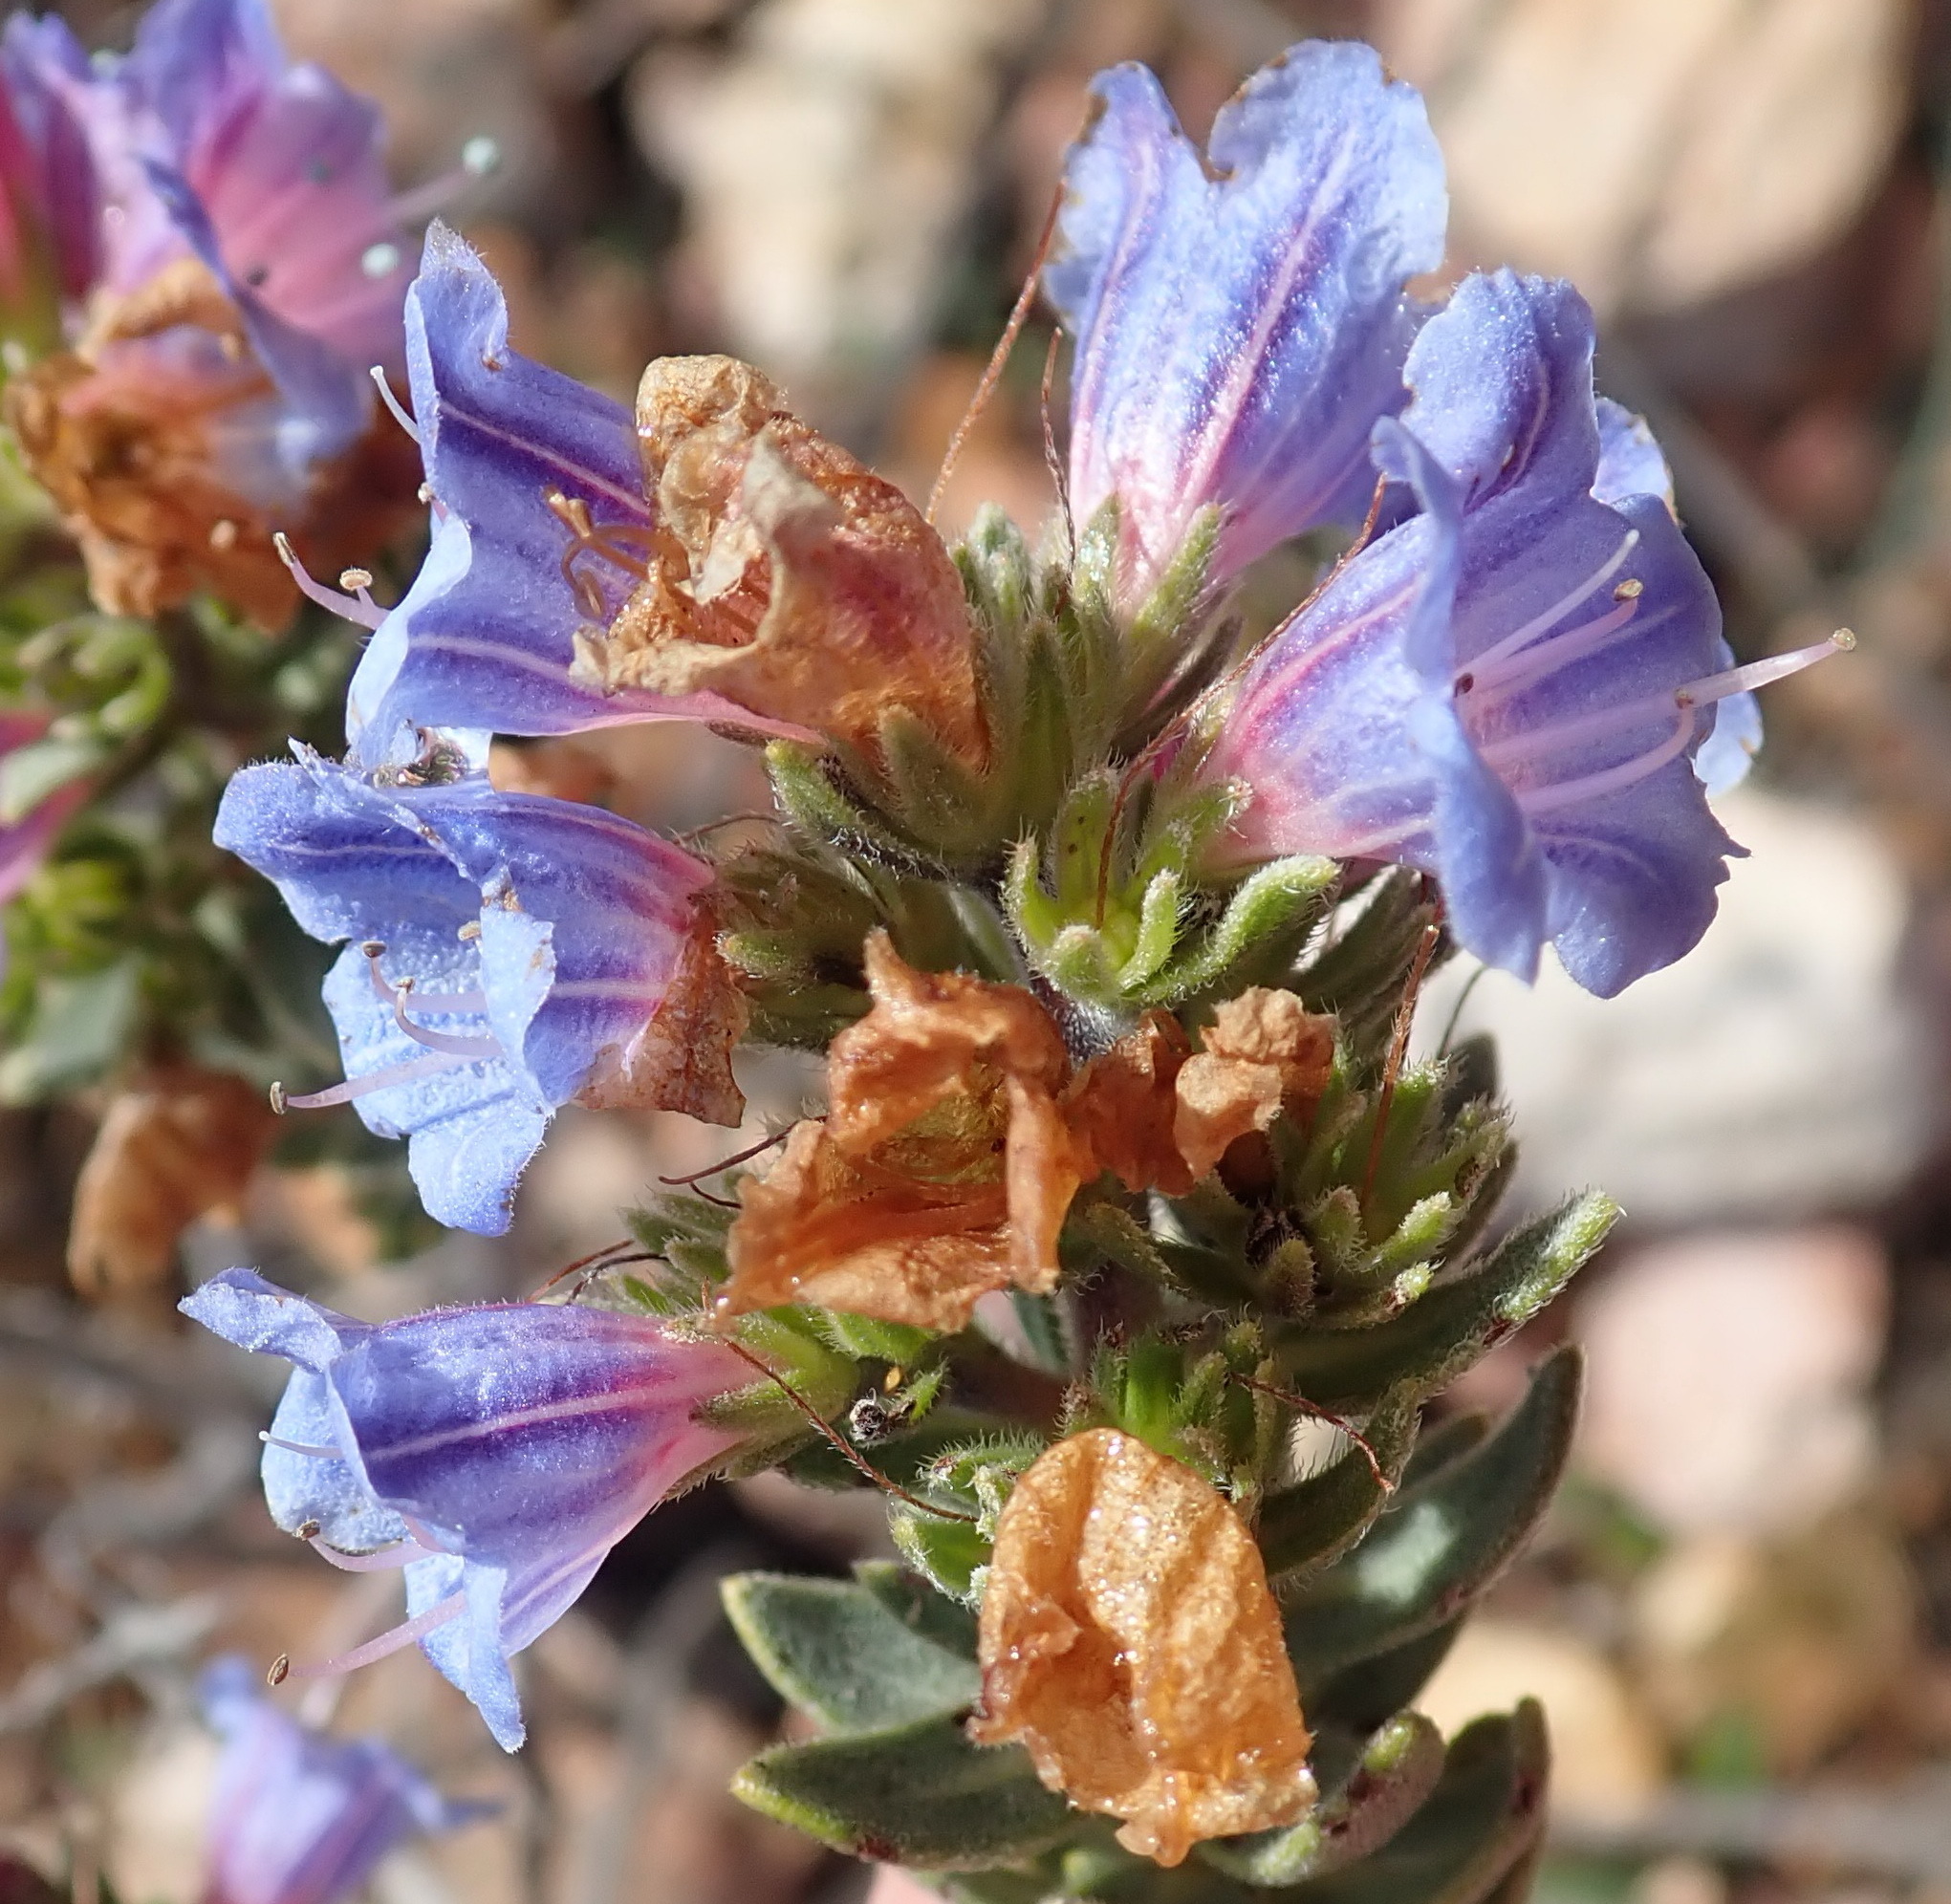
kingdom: Plantae
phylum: Tracheophyta
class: Magnoliopsida
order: Boraginales
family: Boraginaceae
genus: Lobostemon
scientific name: Lobostemon fruticosus
